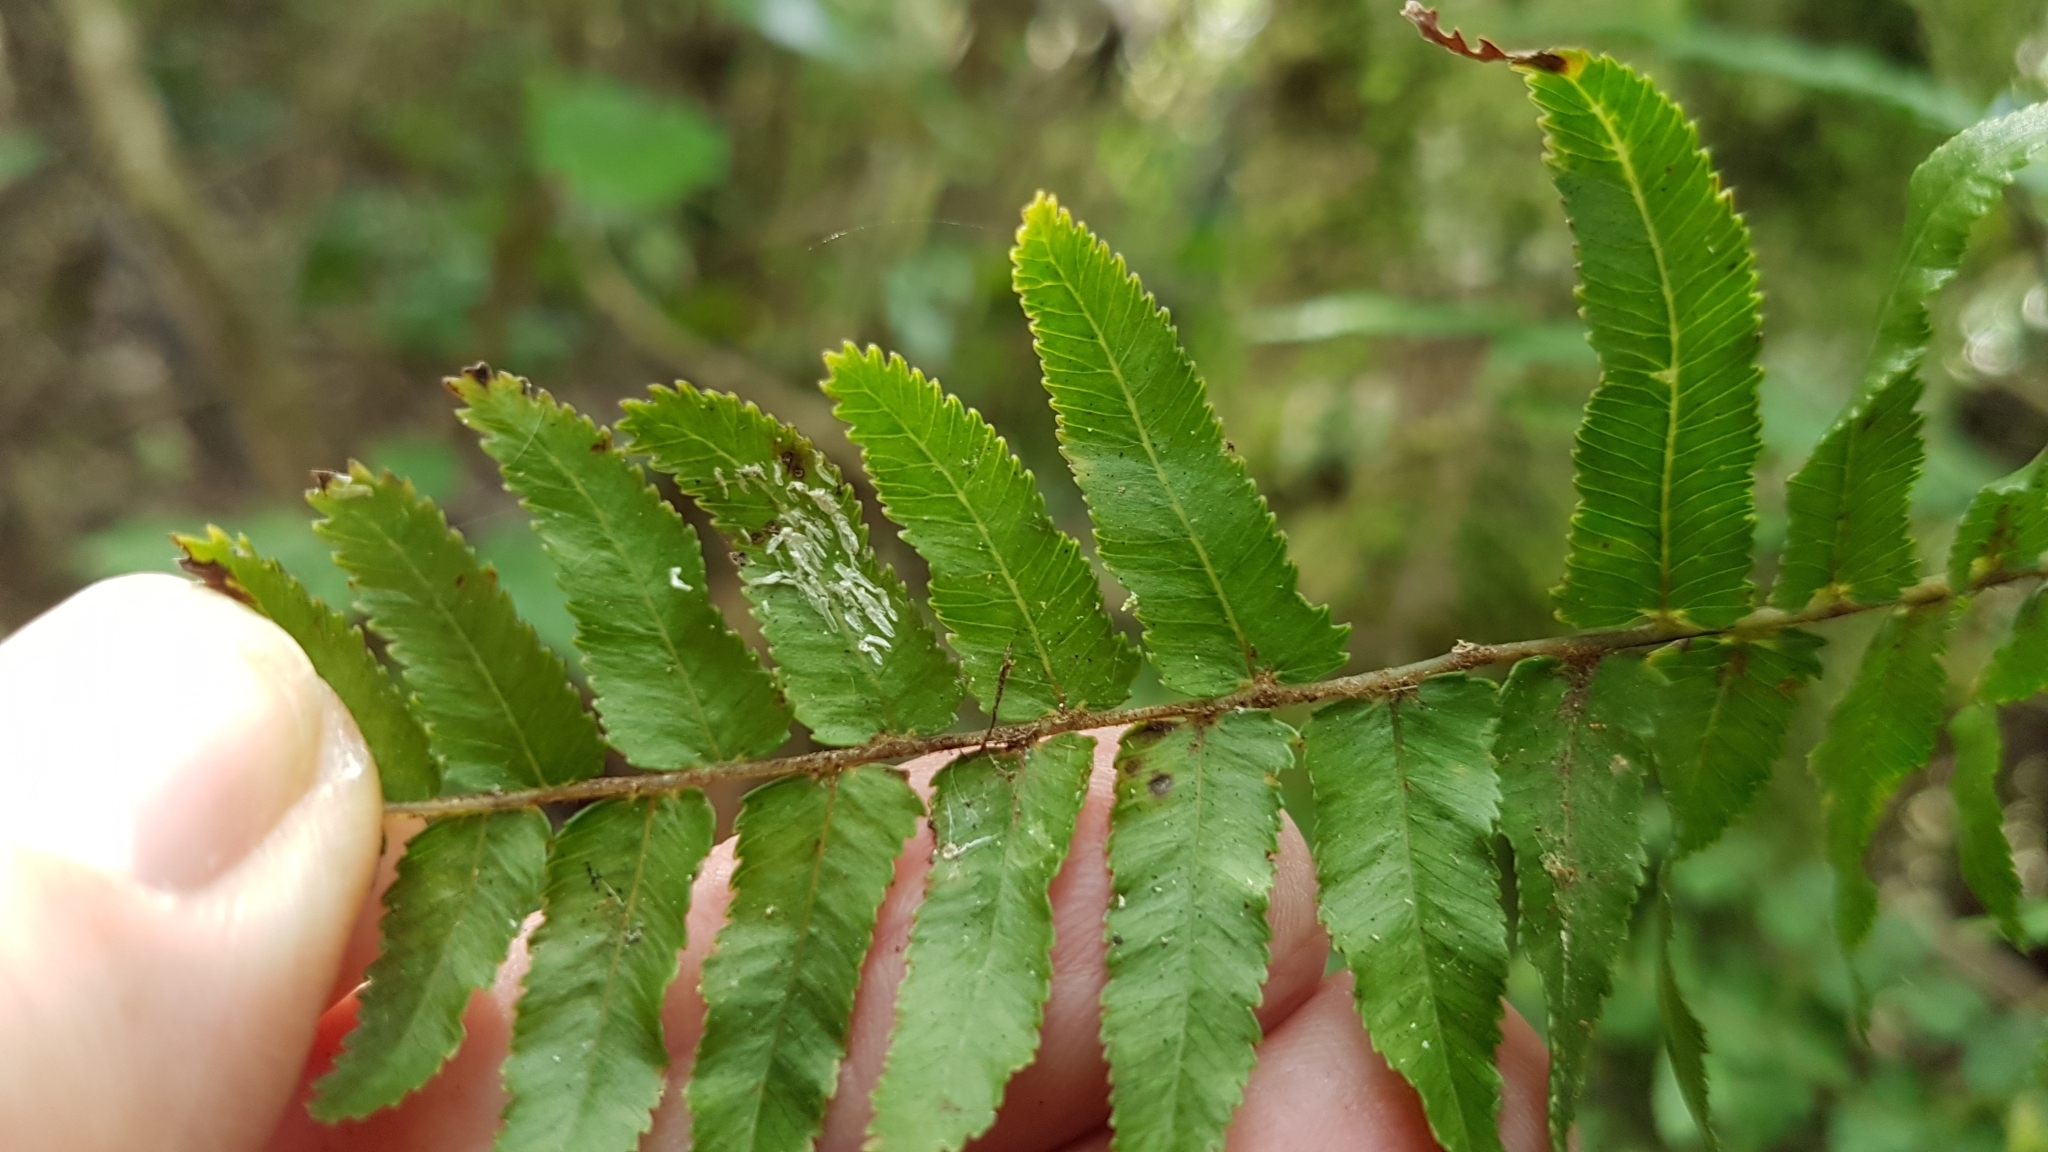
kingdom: Plantae
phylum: Tracheophyta
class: Polypodiopsida
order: Polypodiales
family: Blechnaceae
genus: Icarus
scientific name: Icarus filiformis
